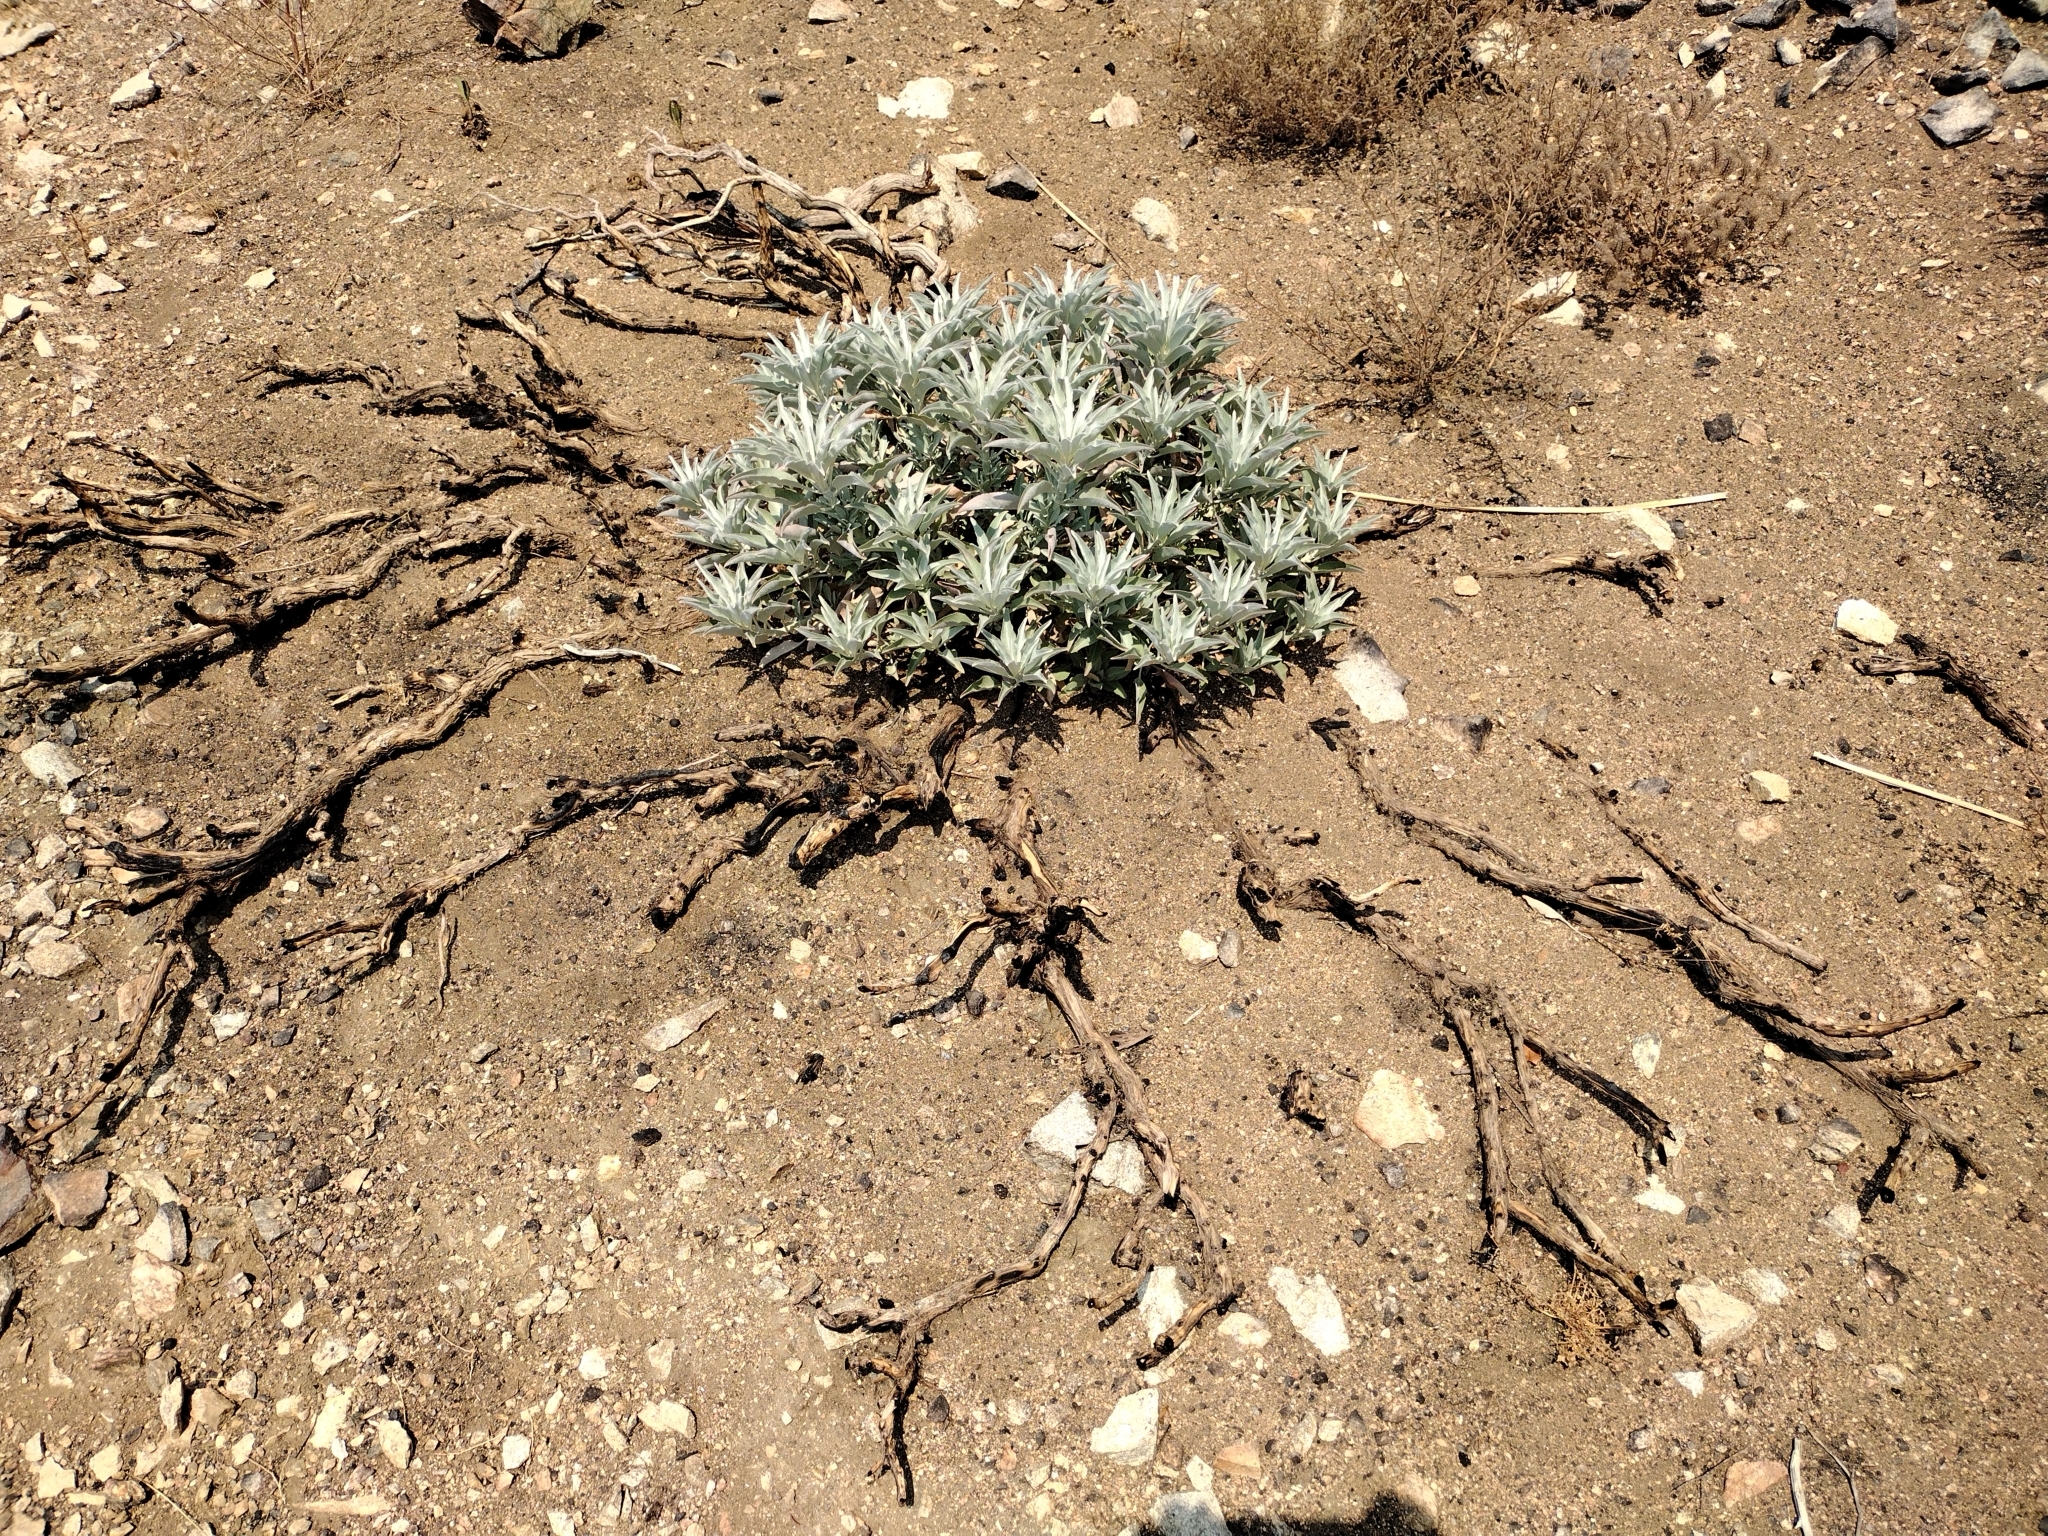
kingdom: Plantae
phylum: Tracheophyta
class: Magnoliopsida
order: Lamiales
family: Lamiaceae
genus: Salvia
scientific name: Salvia apiana
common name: White sage
